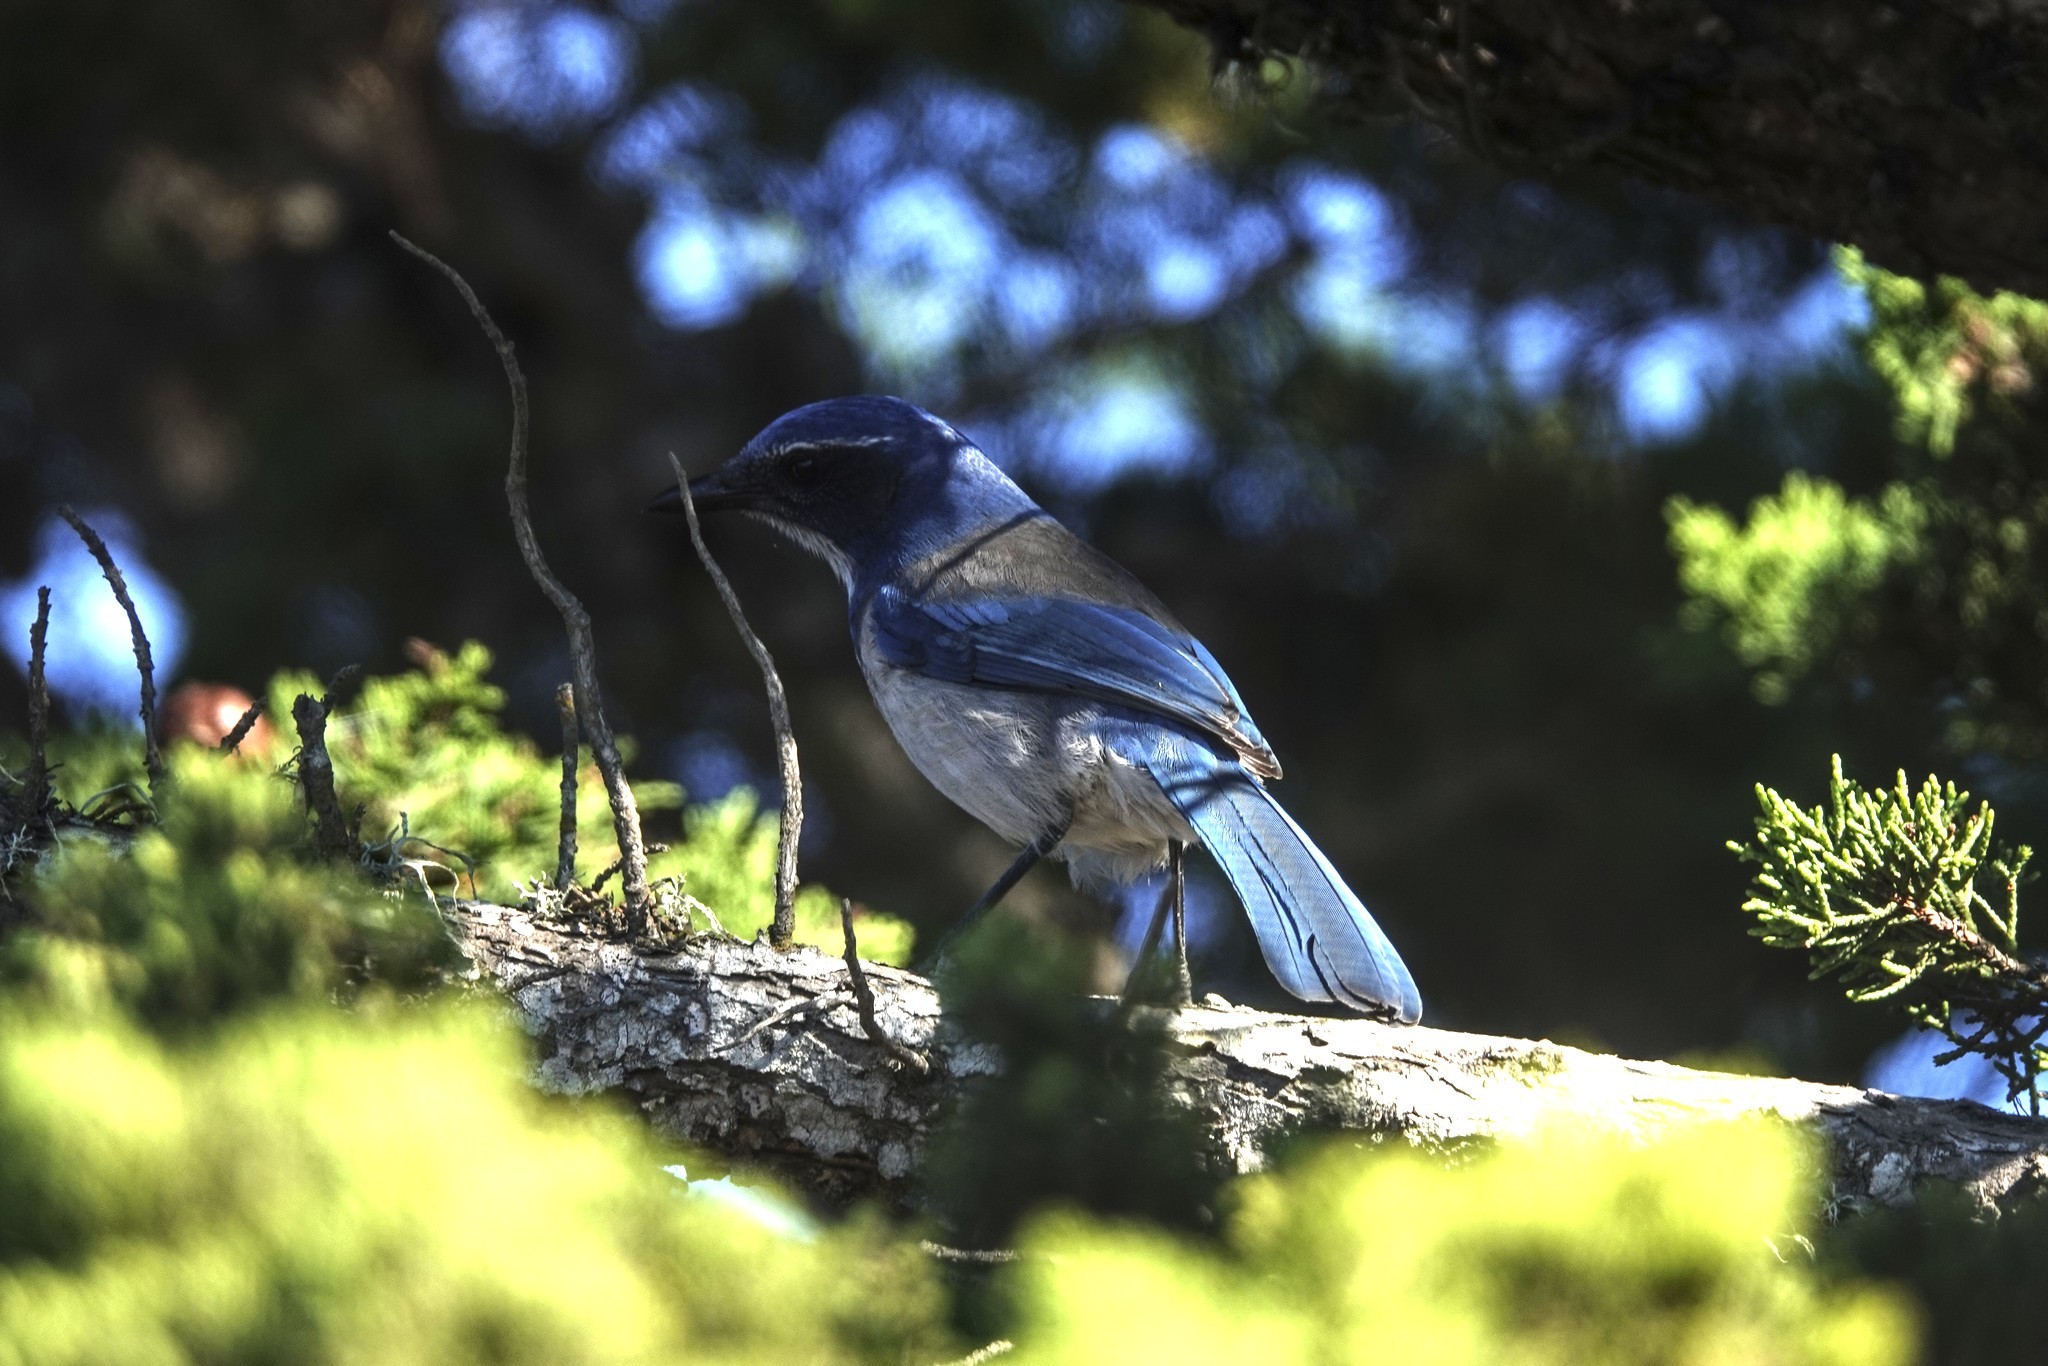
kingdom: Animalia
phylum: Chordata
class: Aves
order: Passeriformes
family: Corvidae
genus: Aphelocoma
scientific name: Aphelocoma californica
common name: California scrub-jay
